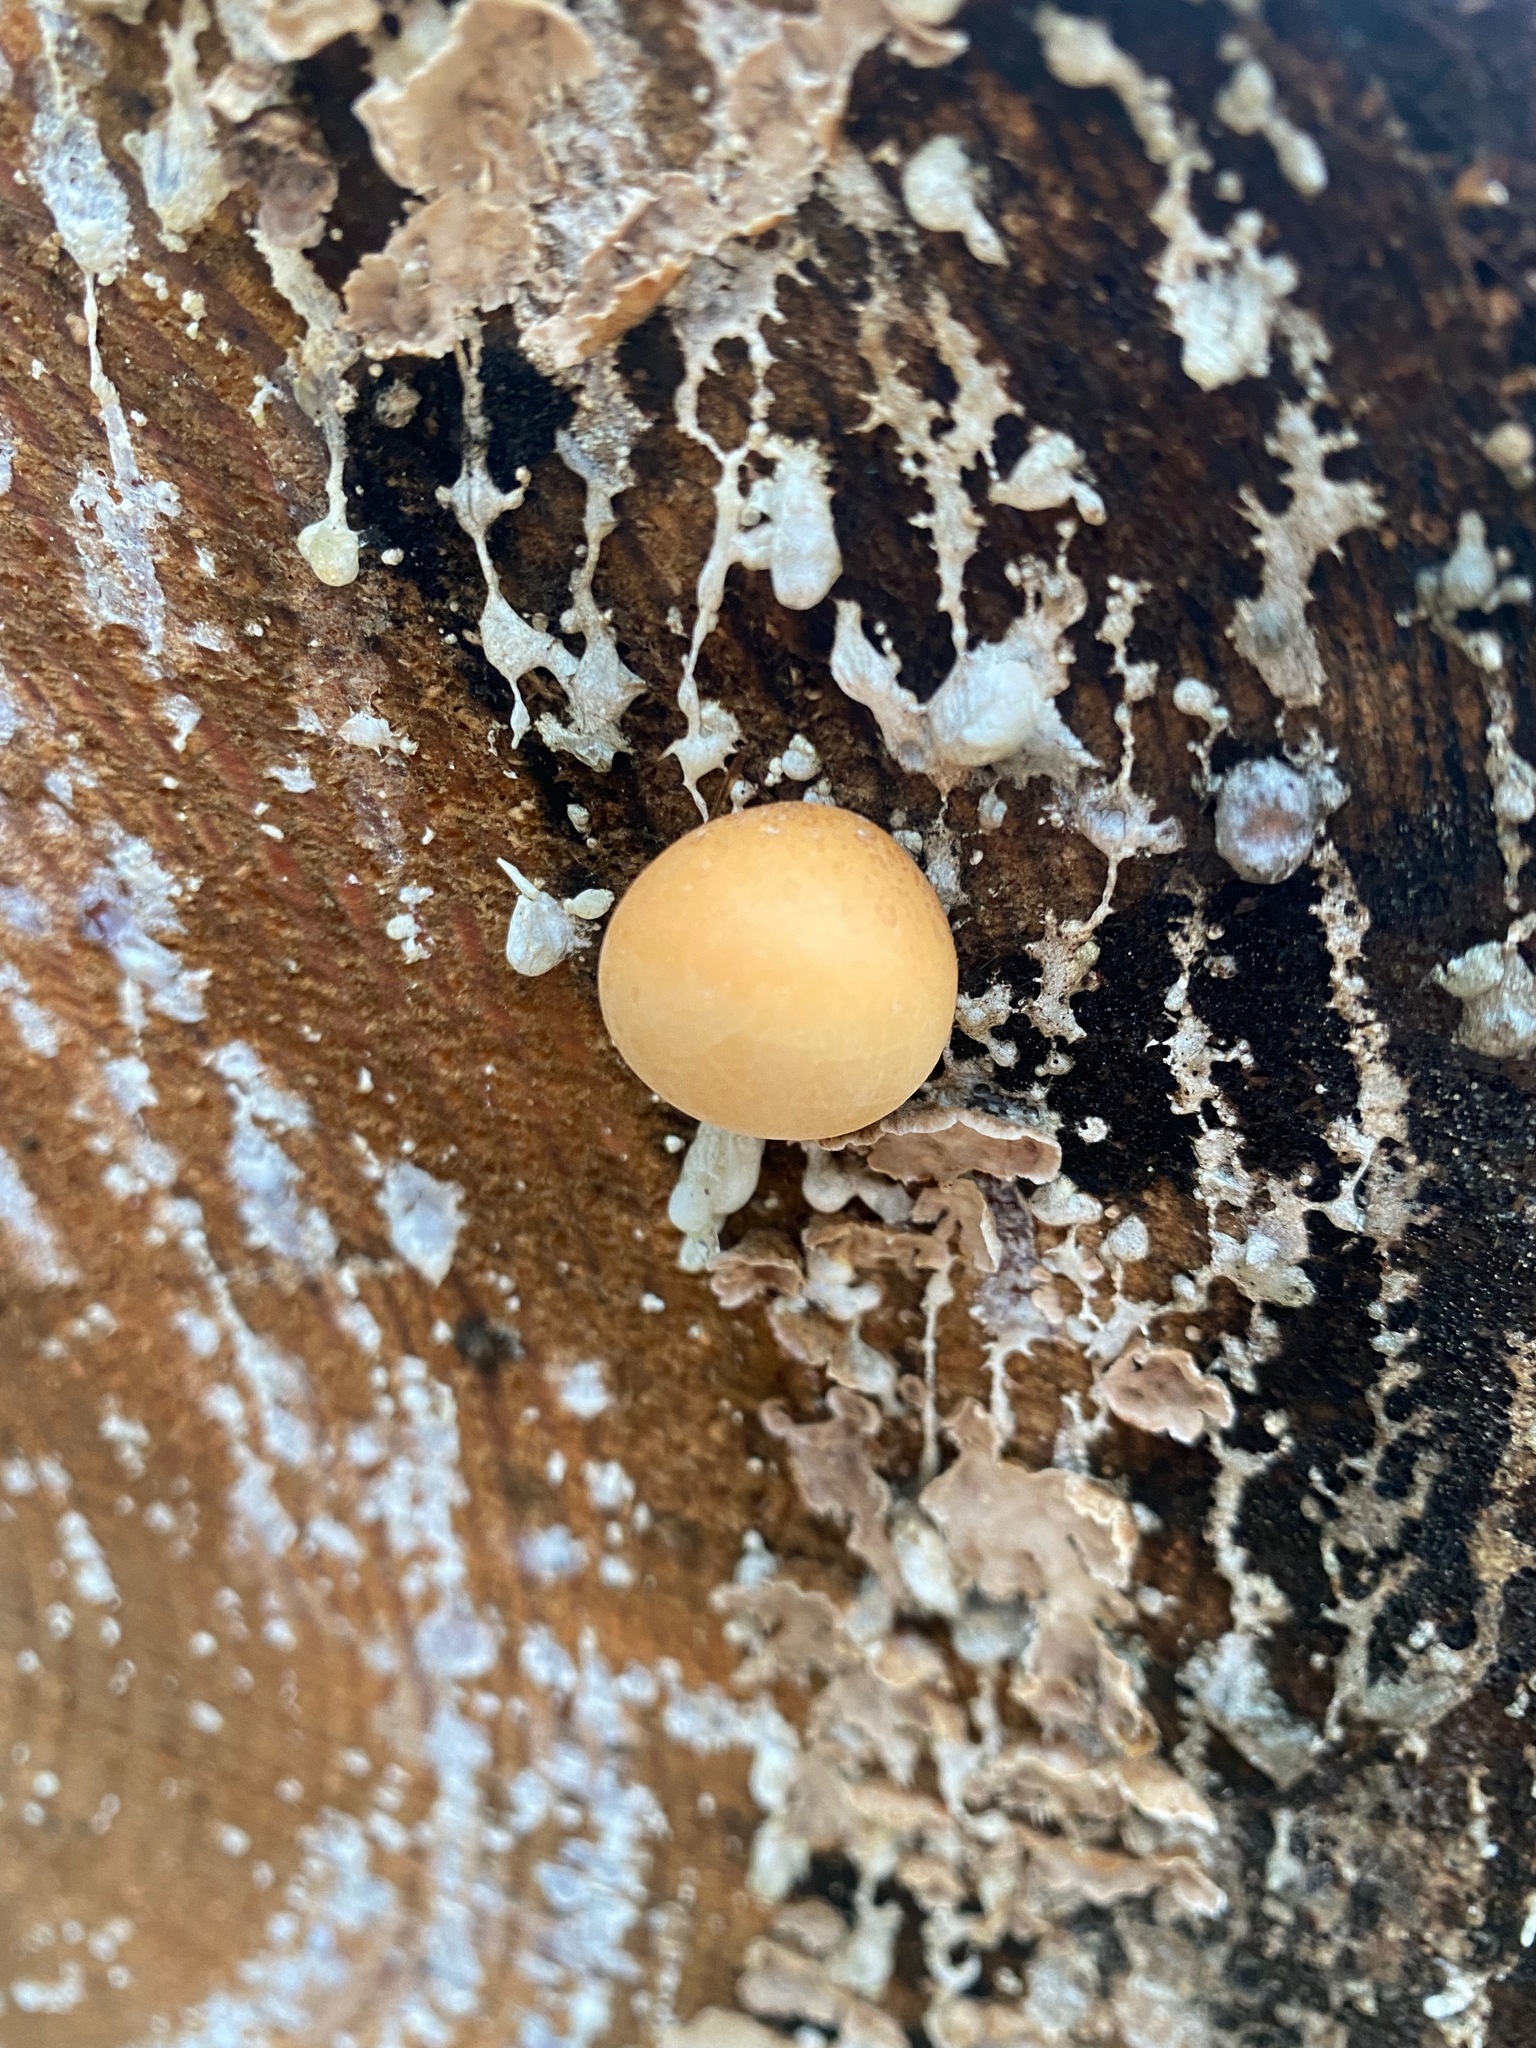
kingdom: Fungi
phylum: Basidiomycota
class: Agaricomycetes
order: Polyporales
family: Polyporaceae
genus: Cryptoporus
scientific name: Cryptoporus volvatus
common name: Veiled polypore
